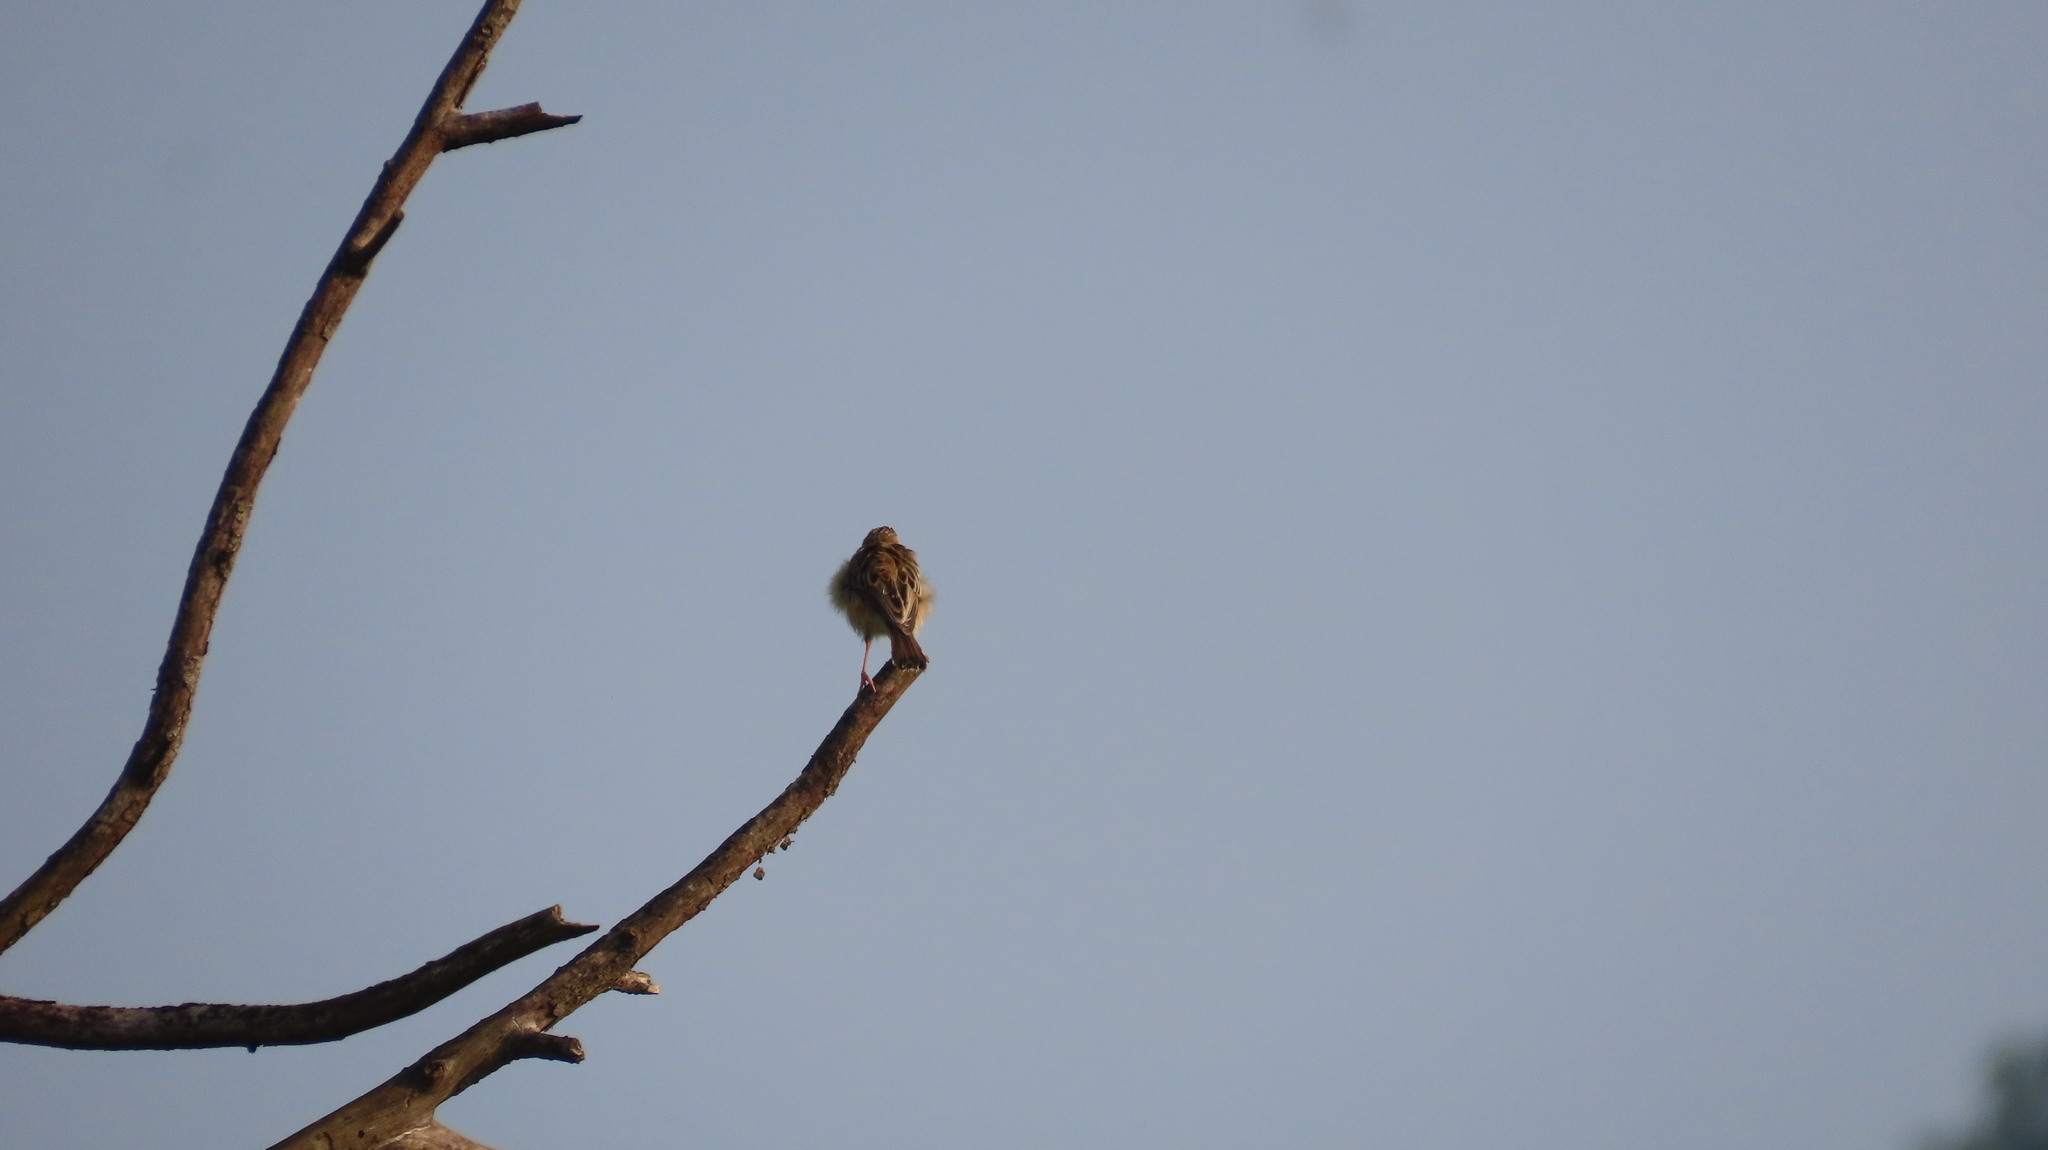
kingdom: Animalia
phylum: Chordata
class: Aves
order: Passeriformes
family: Cisticolidae
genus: Cisticola
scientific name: Cisticola juncidis
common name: Zitting cisticola
